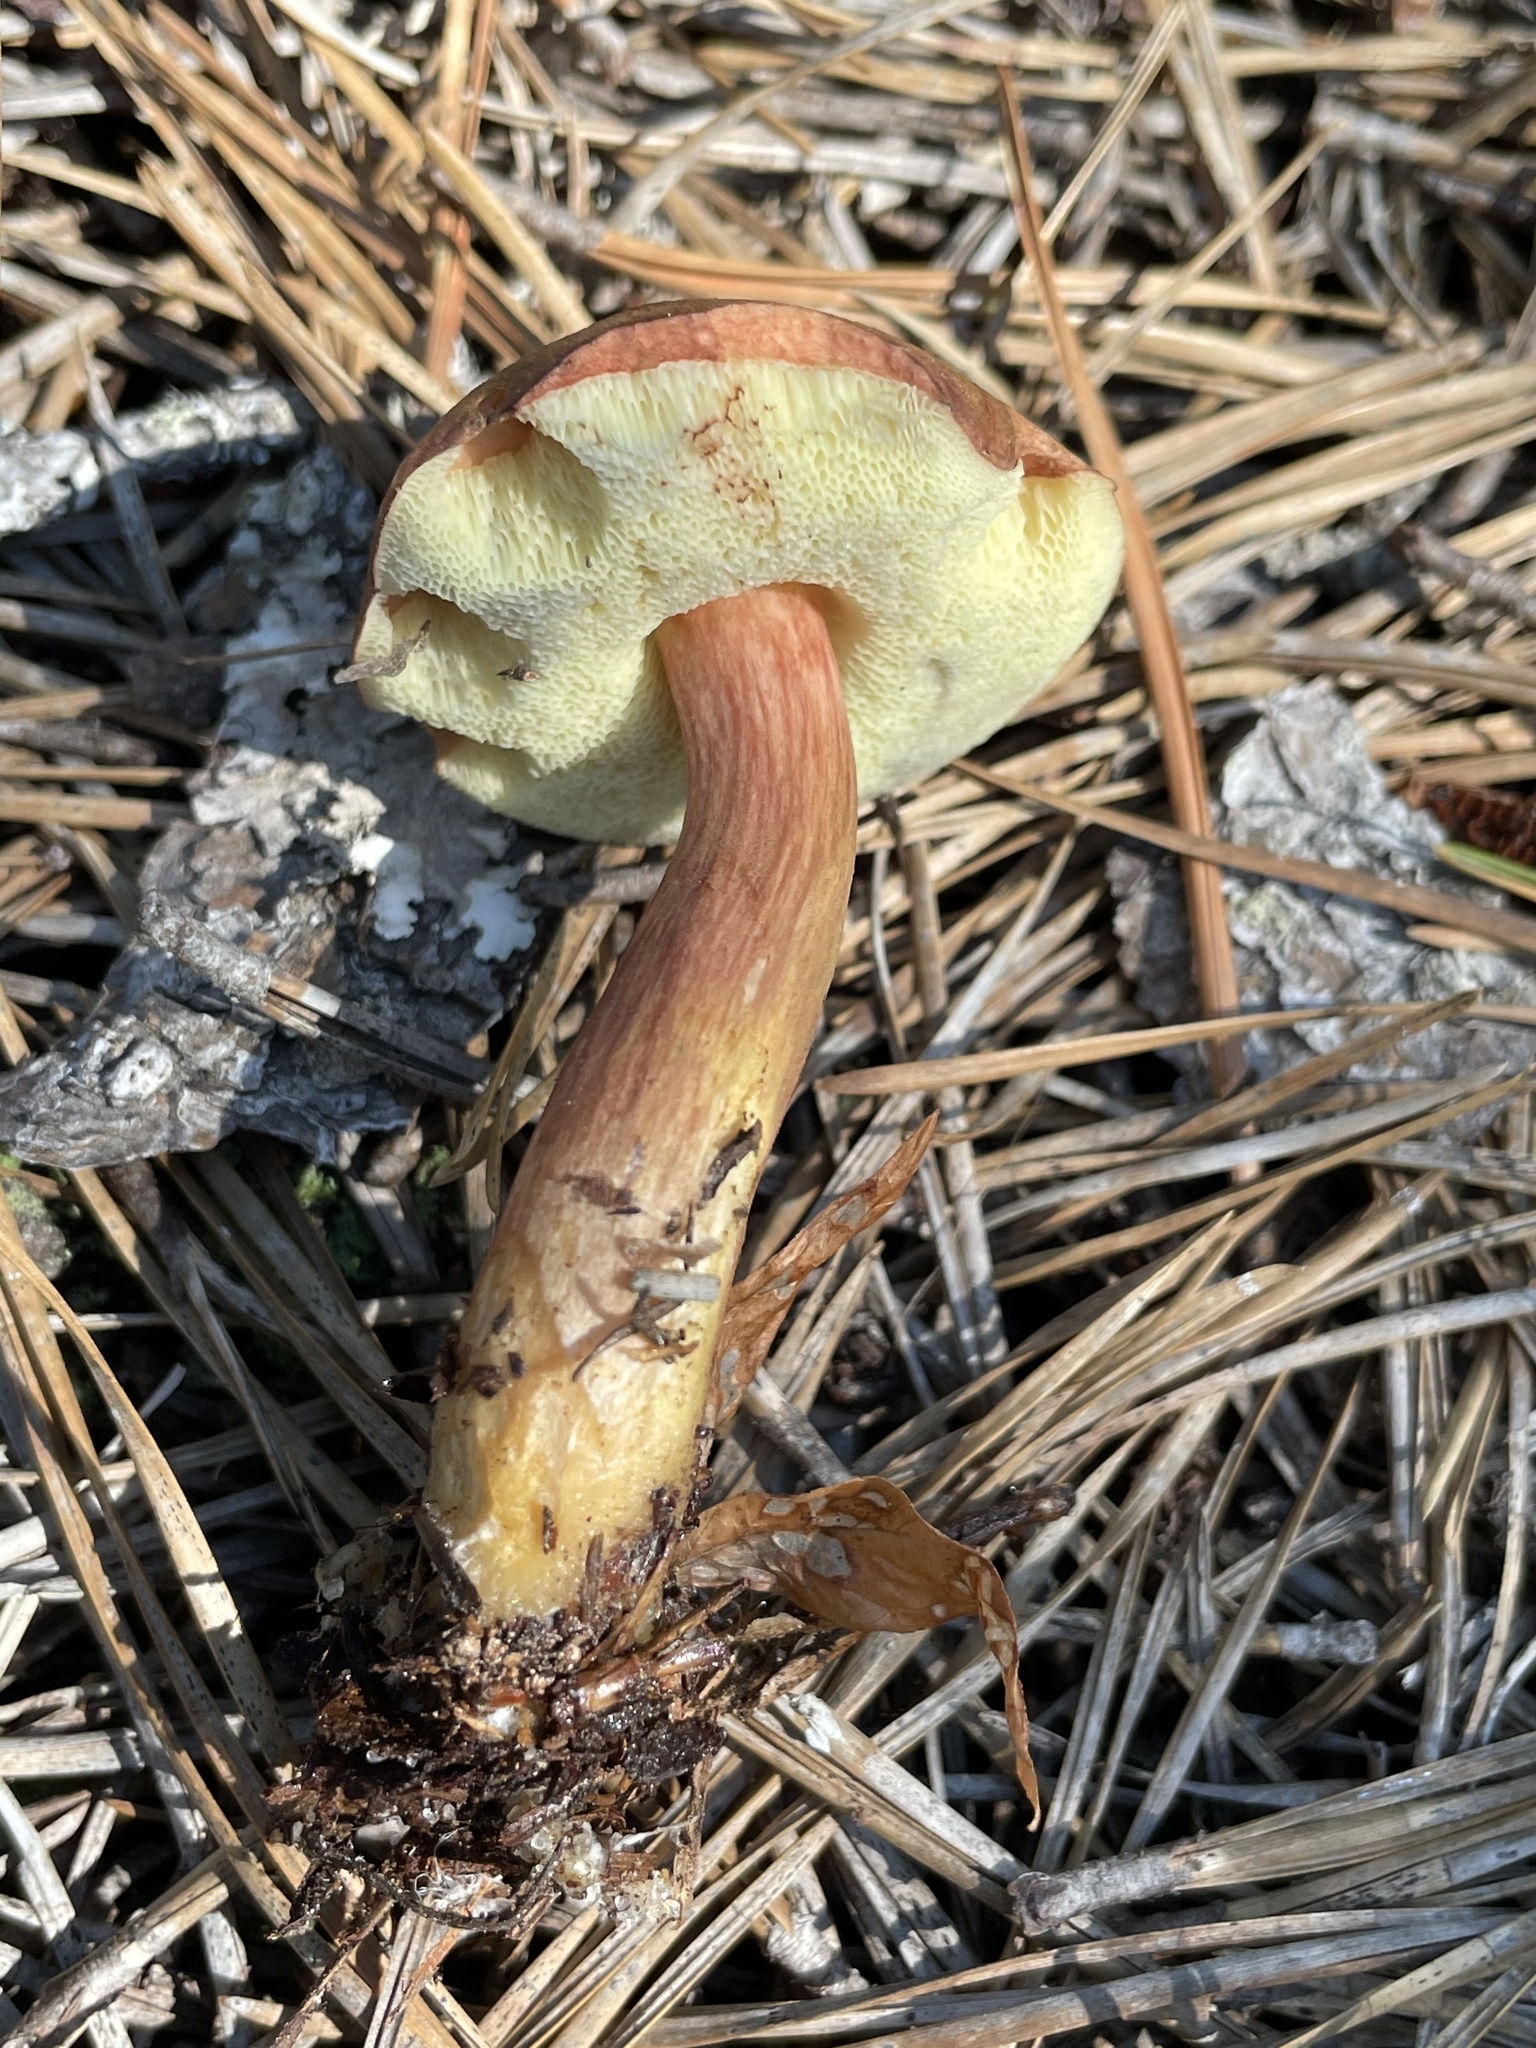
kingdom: Fungi
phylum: Basidiomycota
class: Agaricomycetes
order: Boletales
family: Boletaceae
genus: Imleria
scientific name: Imleria badia
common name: Bay bolete
